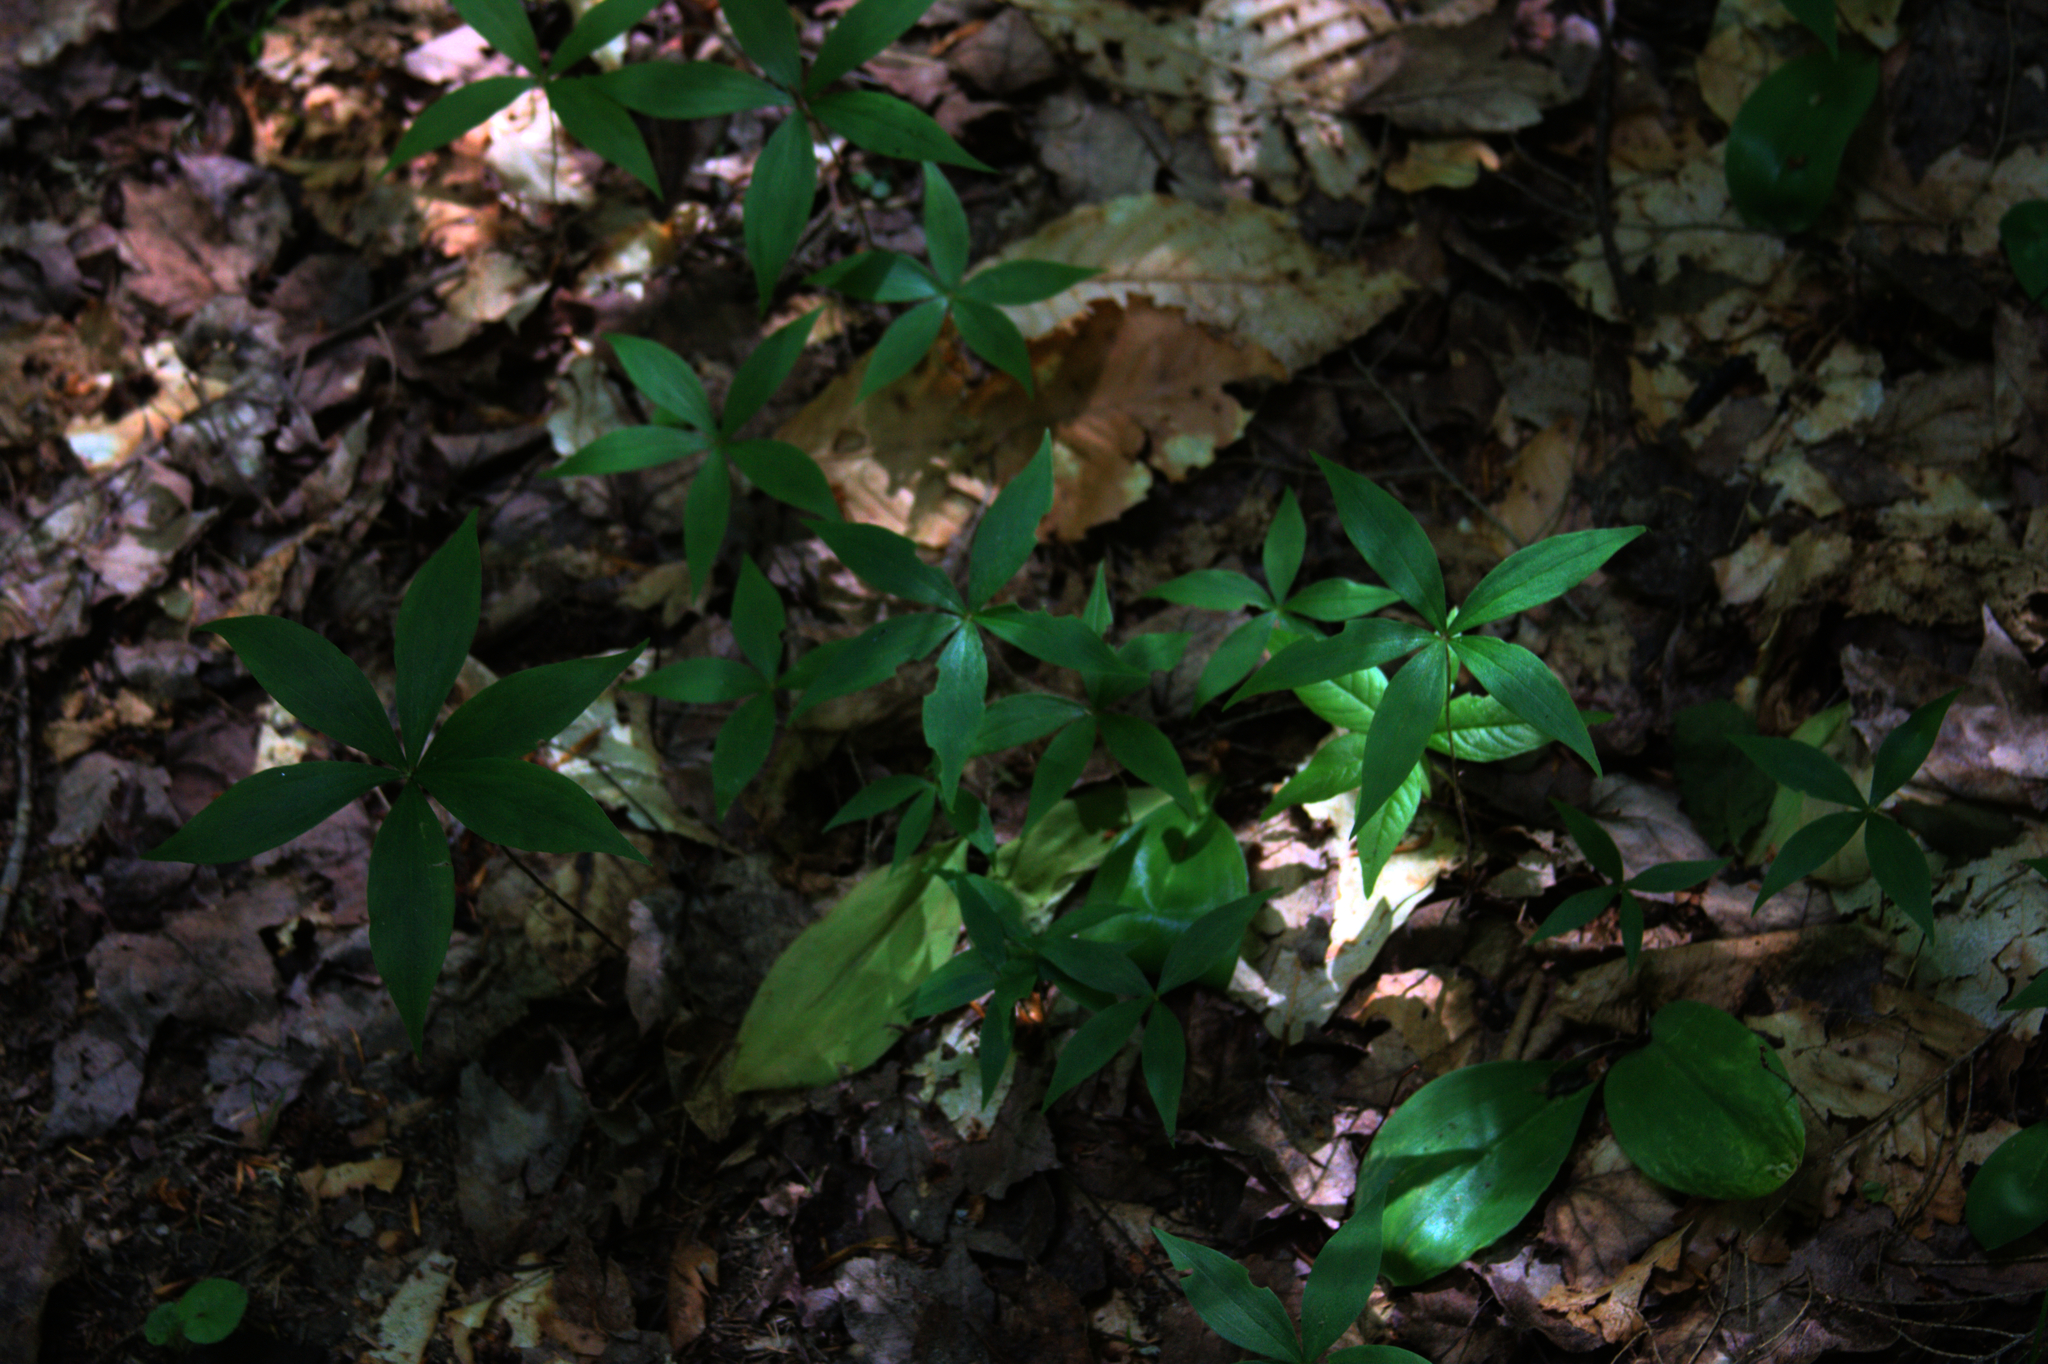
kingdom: Plantae
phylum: Tracheophyta
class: Magnoliopsida
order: Ericales
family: Primulaceae
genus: Lysimachia
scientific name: Lysimachia borealis
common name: American starflower
